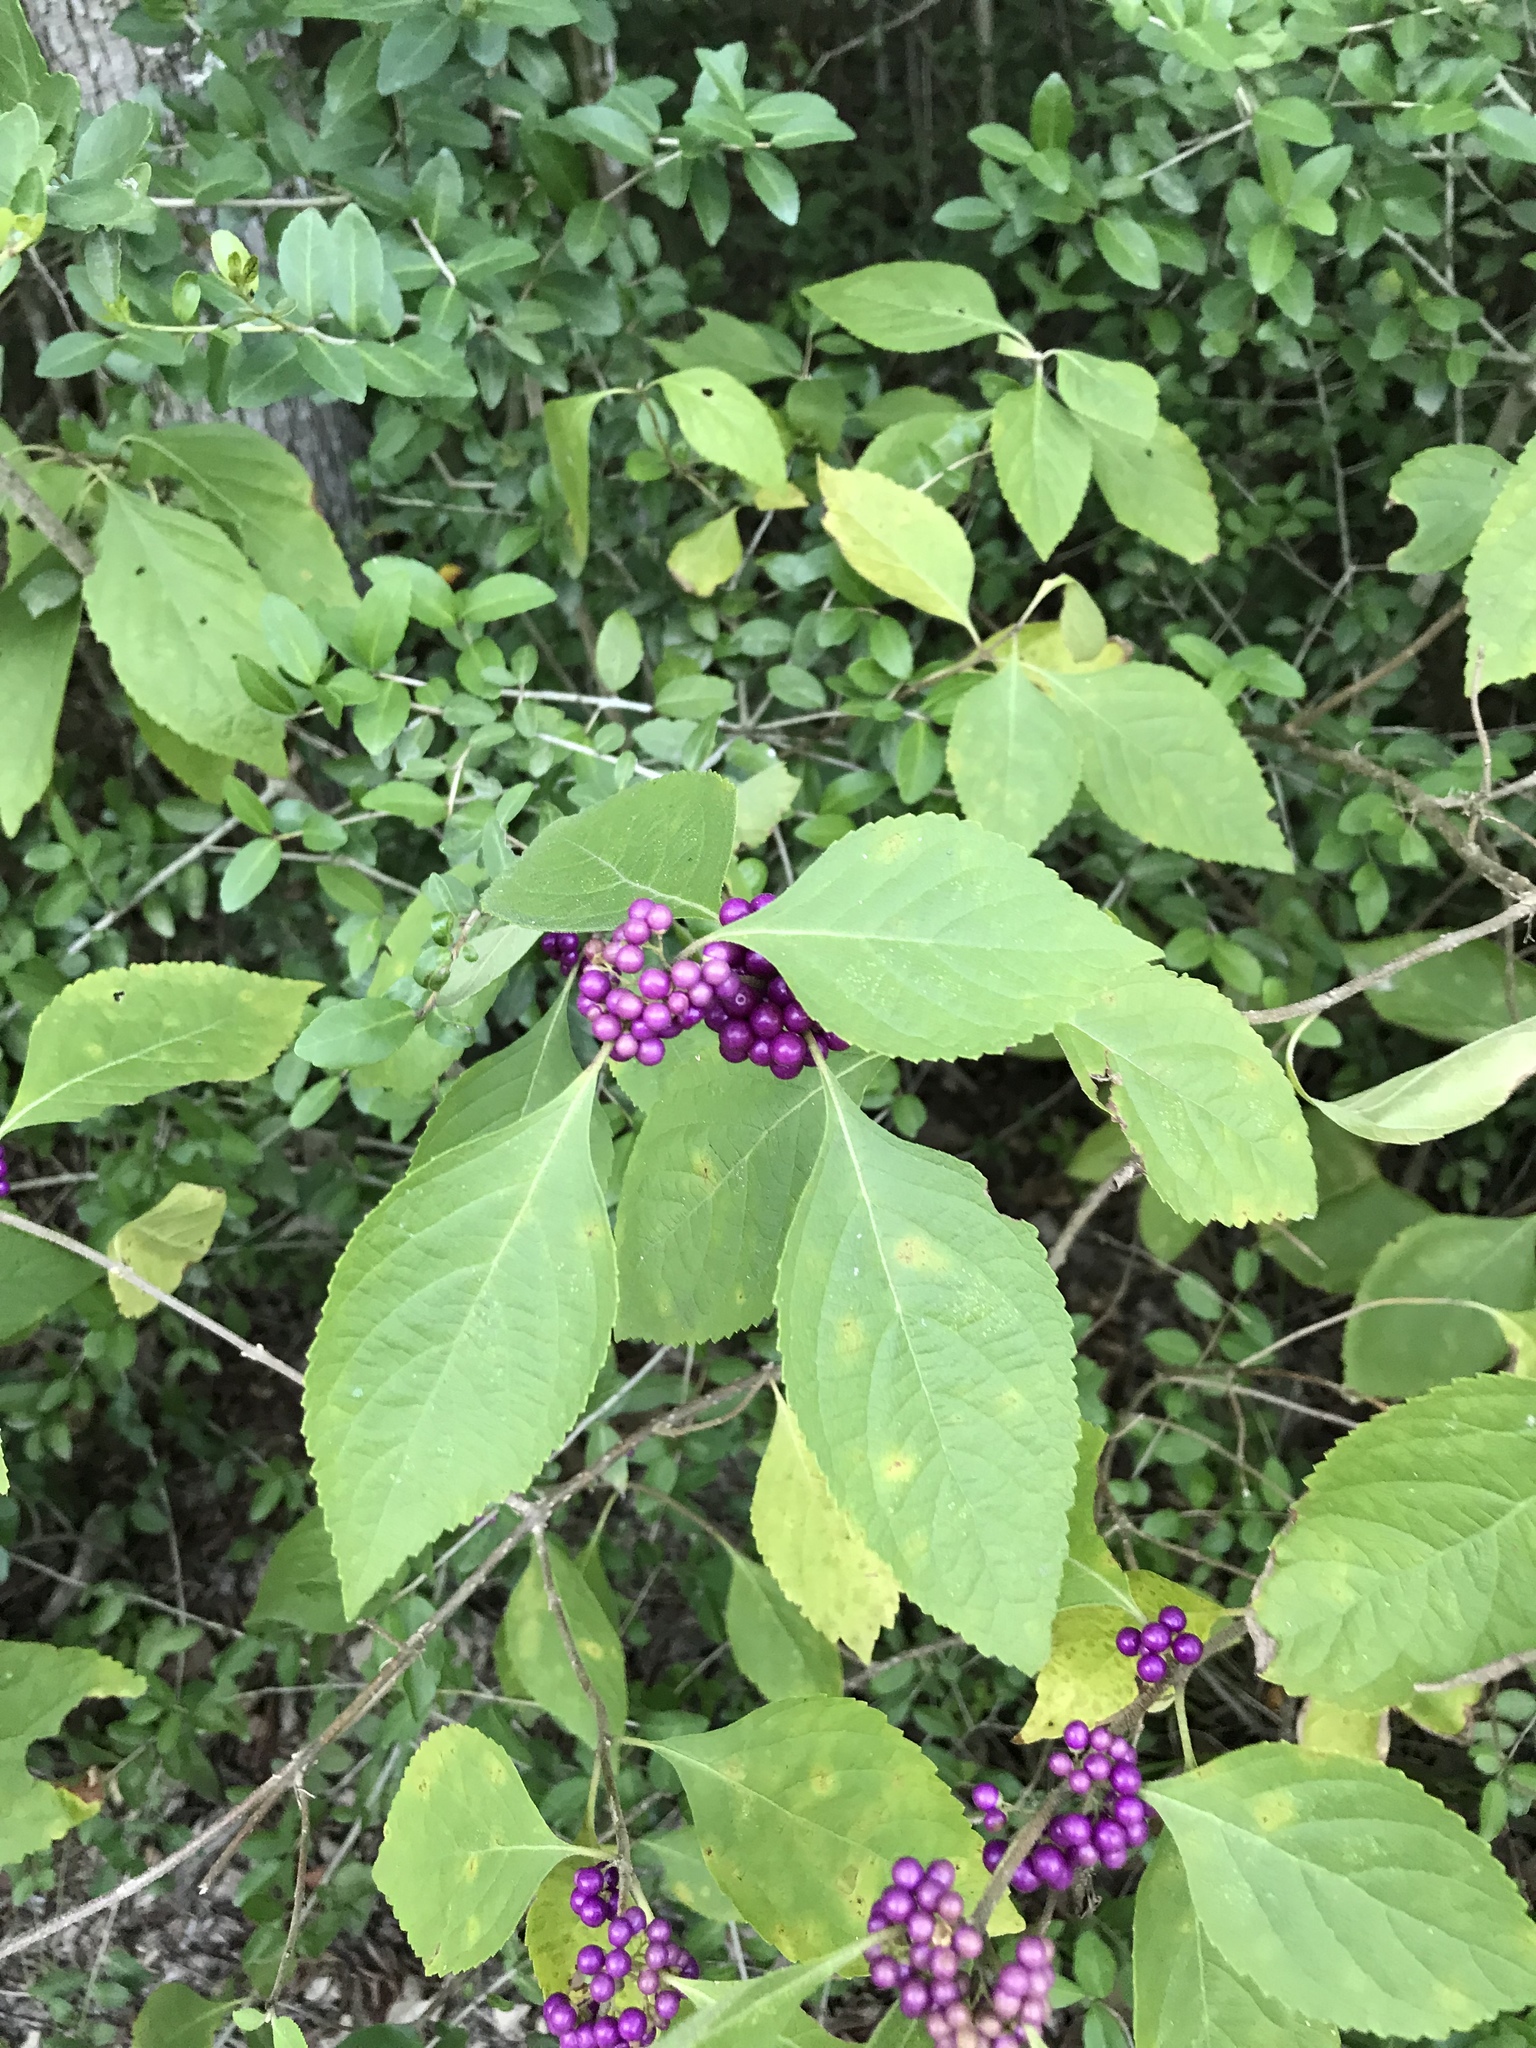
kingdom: Plantae
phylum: Tracheophyta
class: Magnoliopsida
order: Lamiales
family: Lamiaceae
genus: Callicarpa
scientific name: Callicarpa americana
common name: American beautyberry
